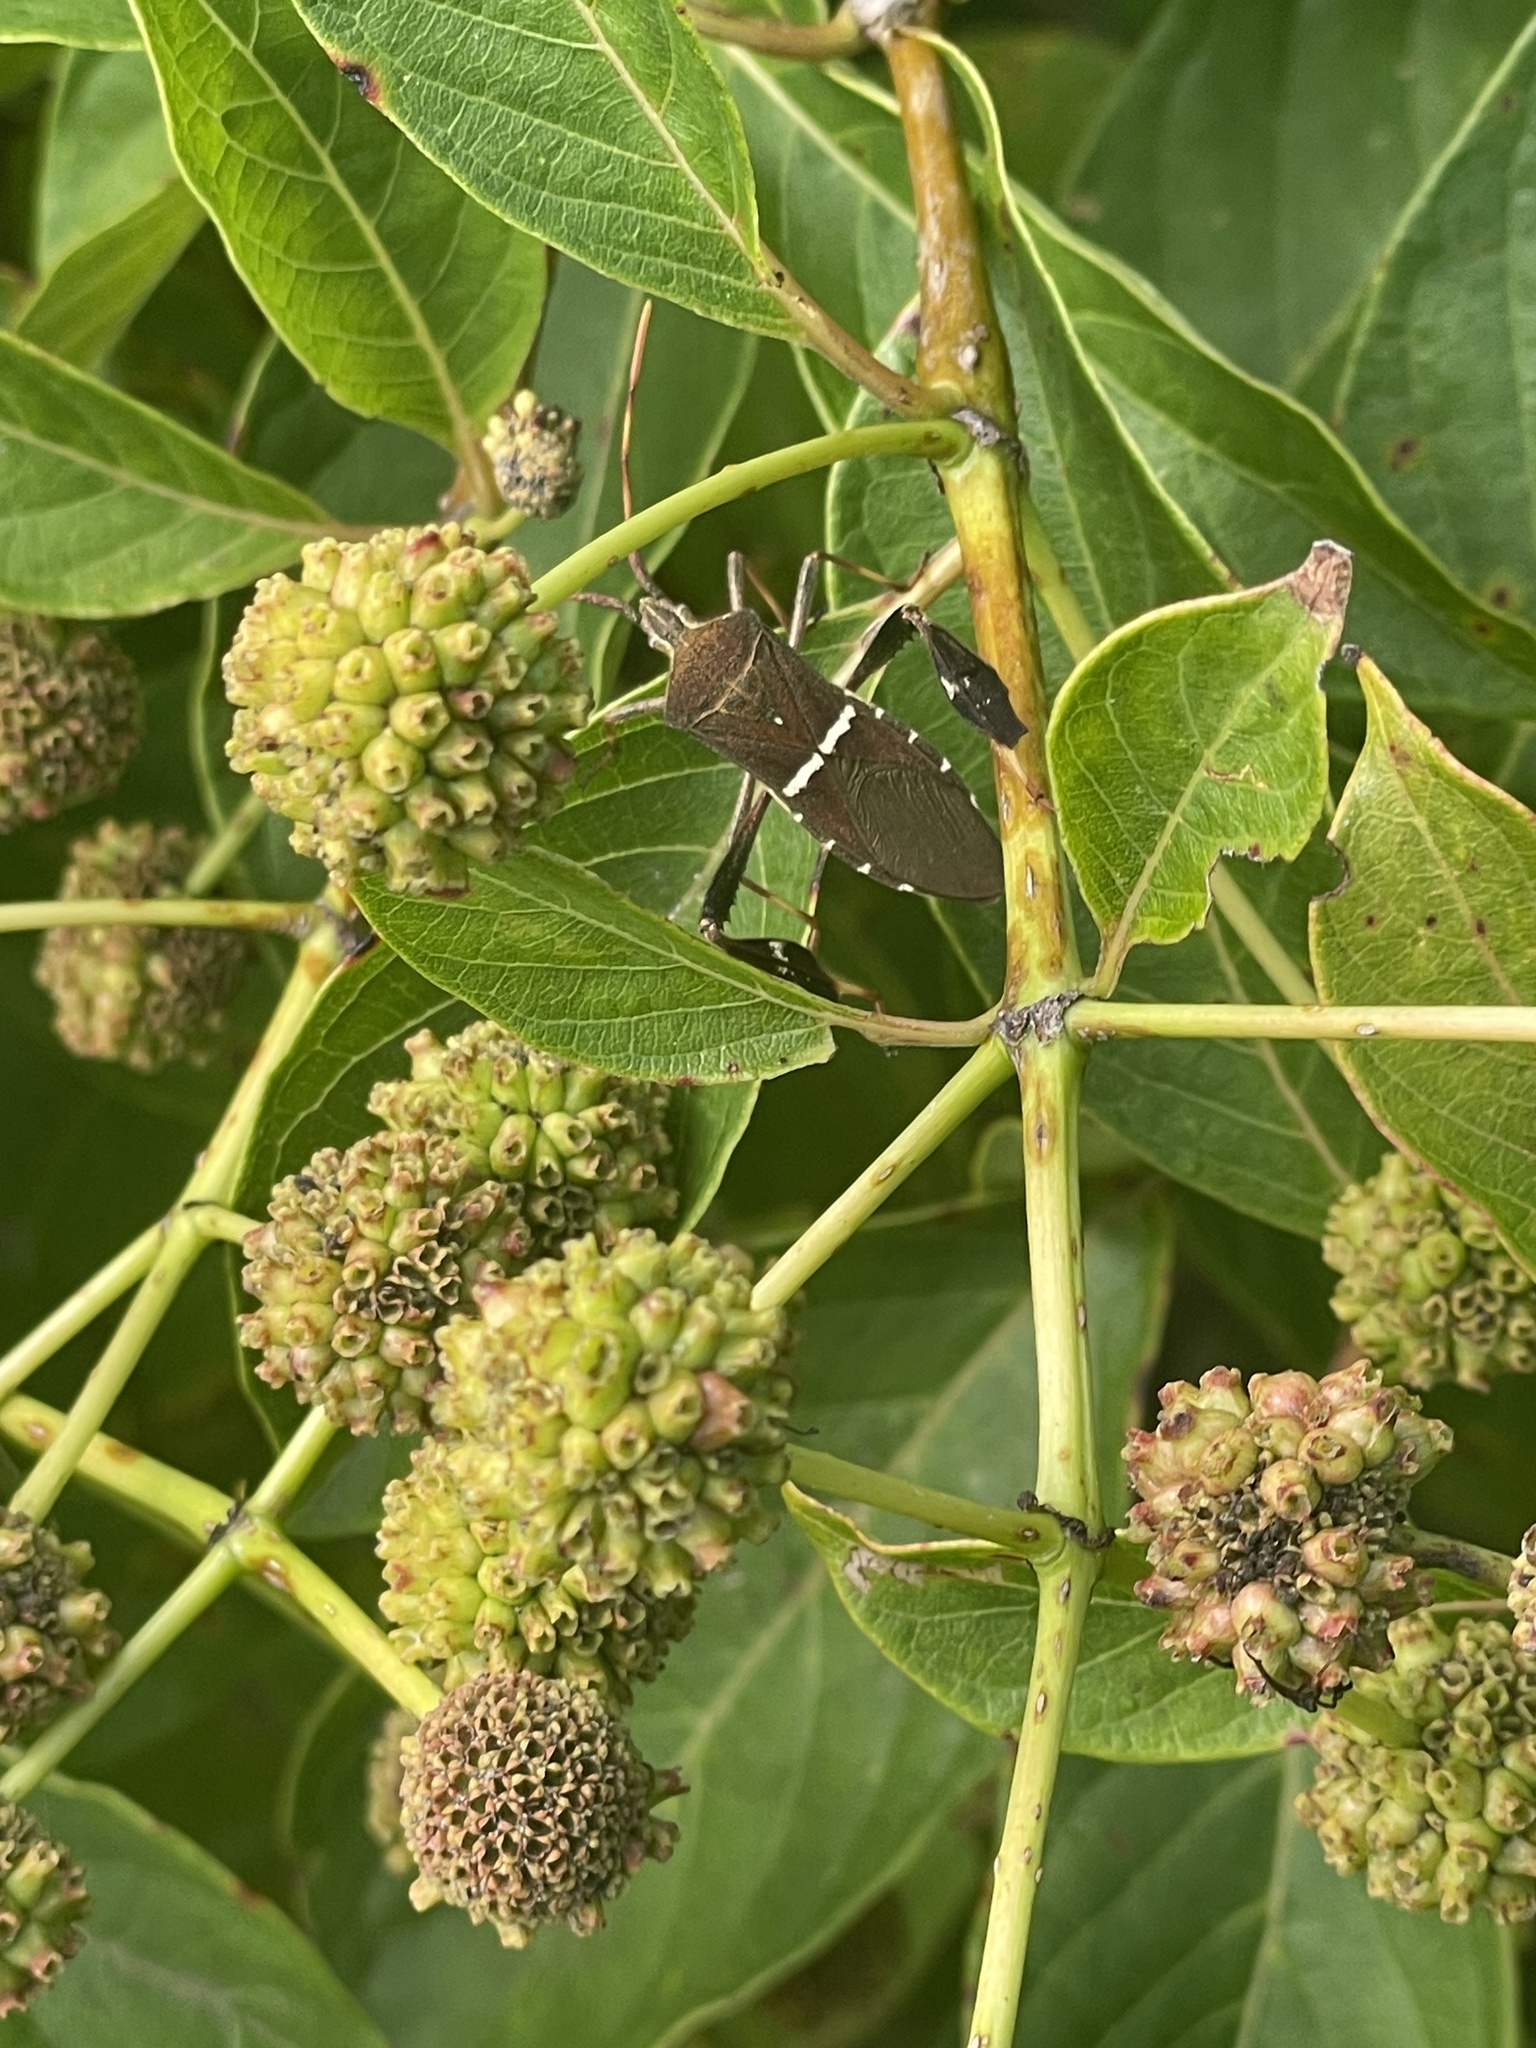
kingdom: Animalia
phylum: Arthropoda
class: Insecta
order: Hemiptera
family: Coreidae
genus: Leptoglossus
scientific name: Leptoglossus phyllopus
